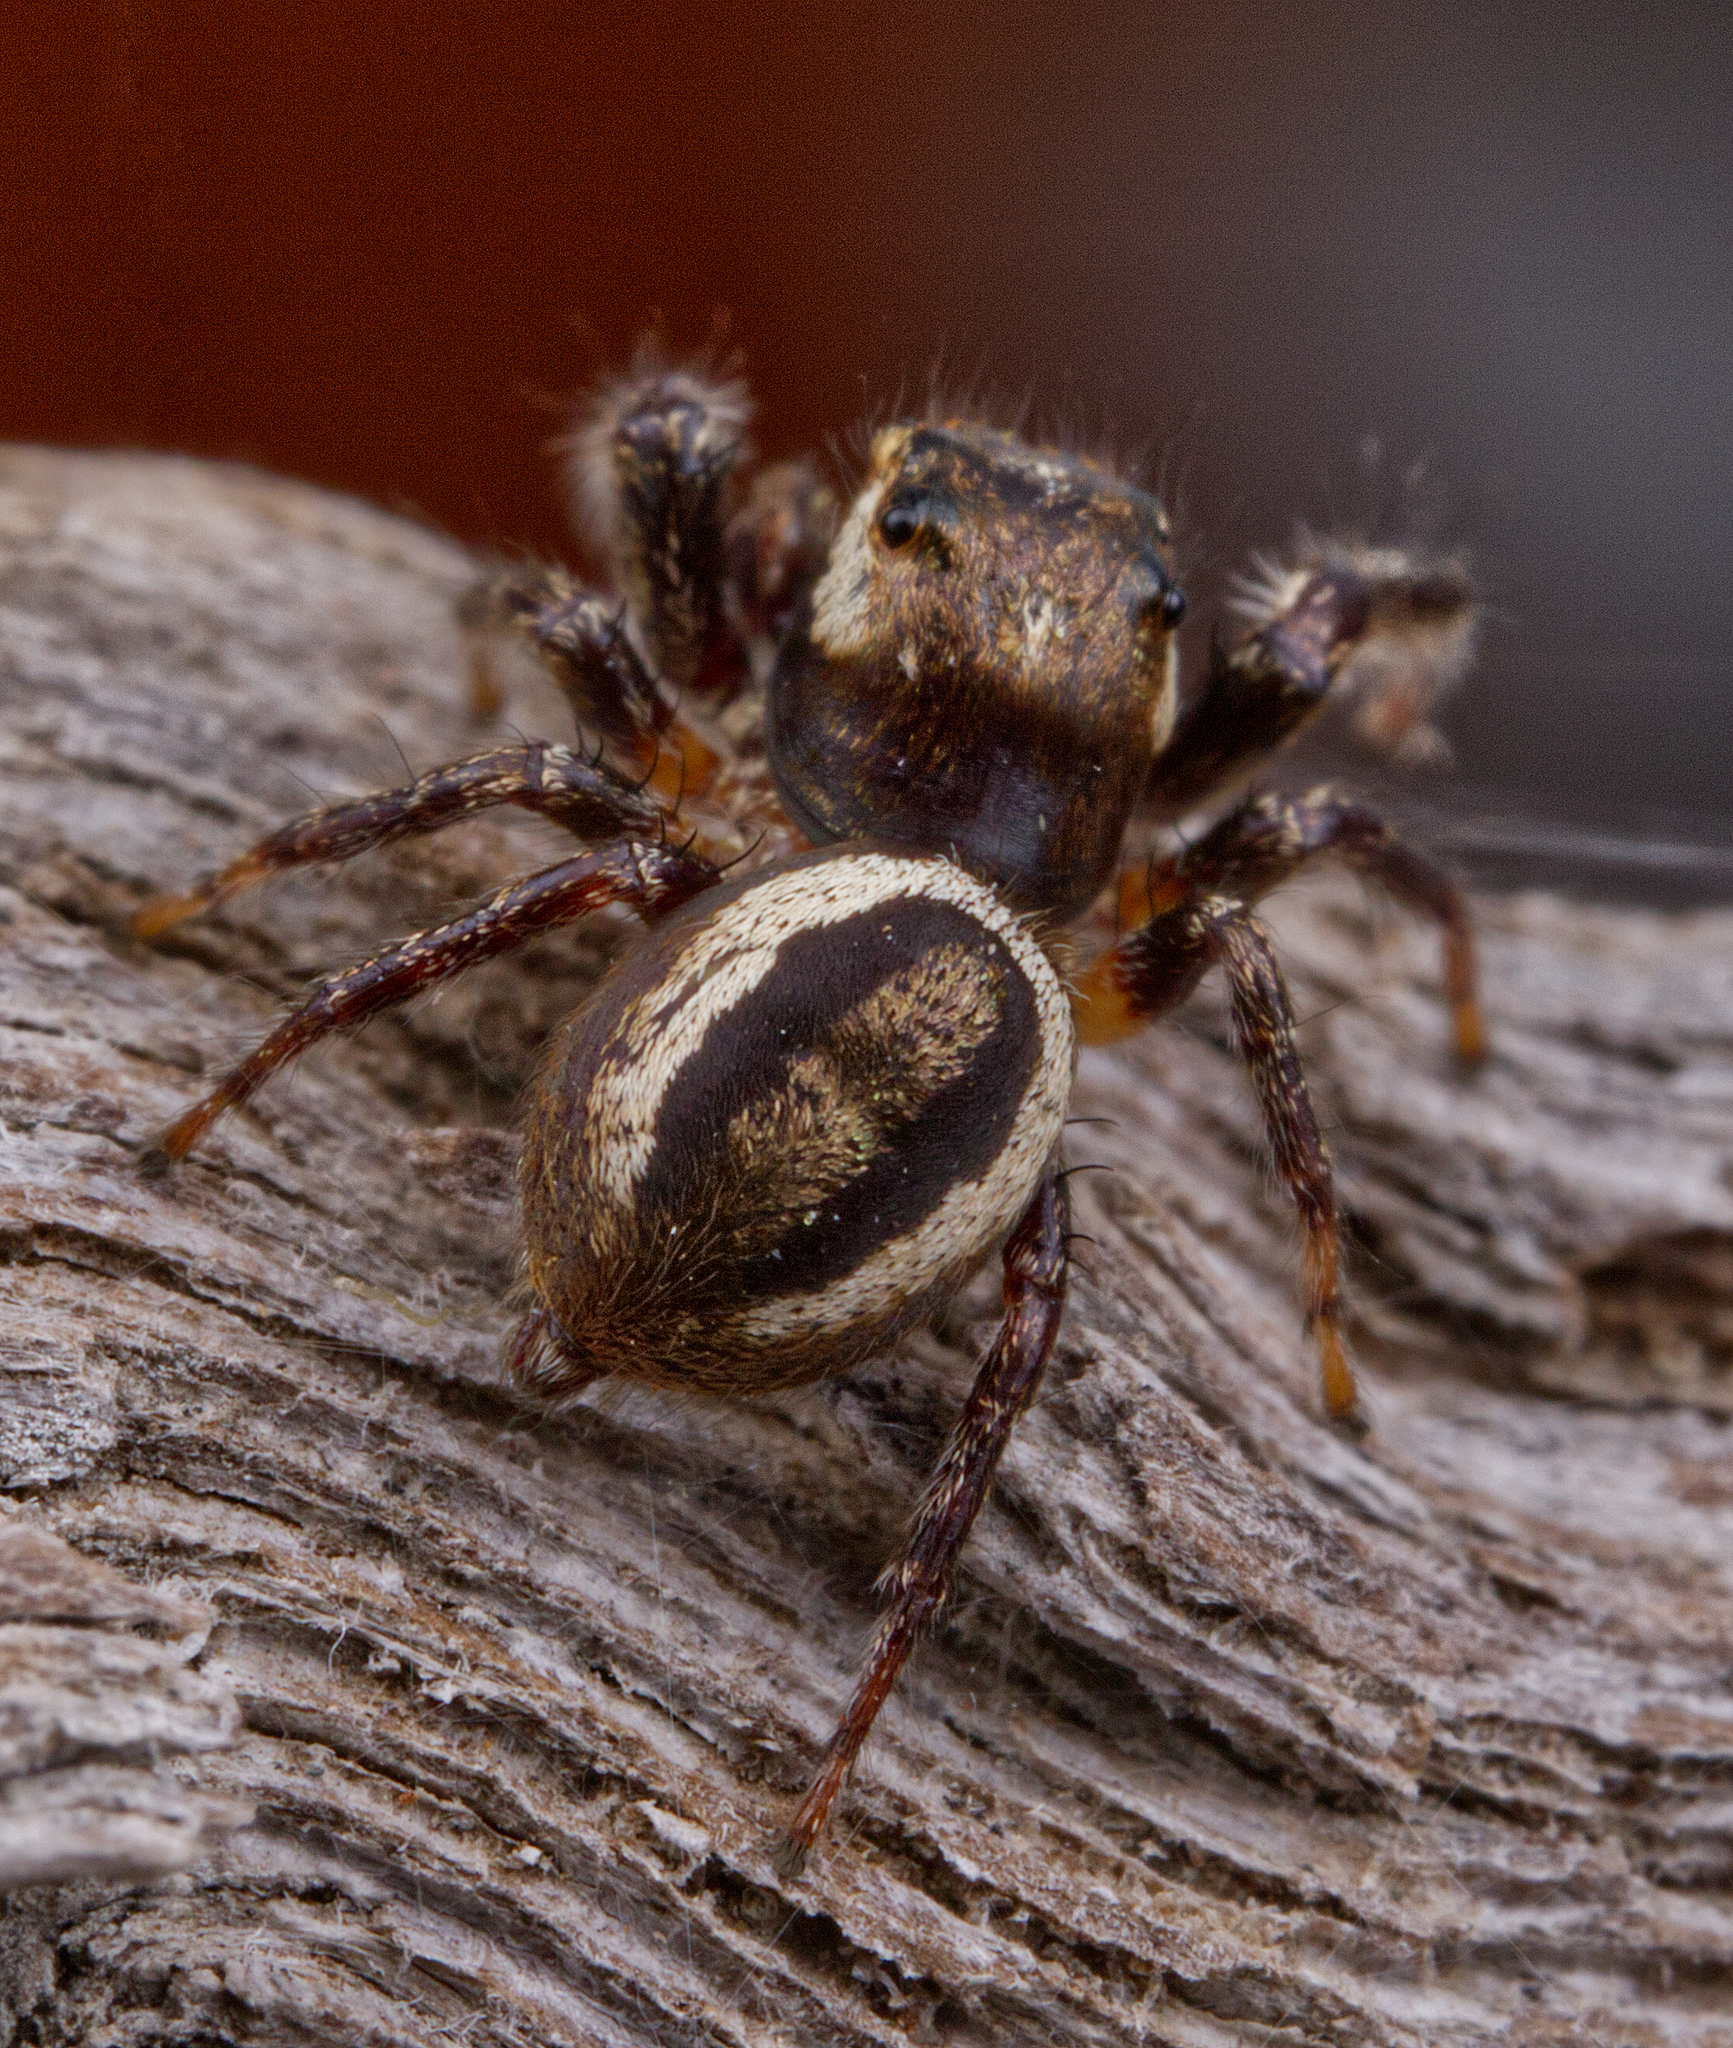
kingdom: Animalia
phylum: Arthropoda
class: Arachnida
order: Araneae
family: Salticidae
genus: Eris
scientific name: Eris militaris
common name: Bronze jumper
